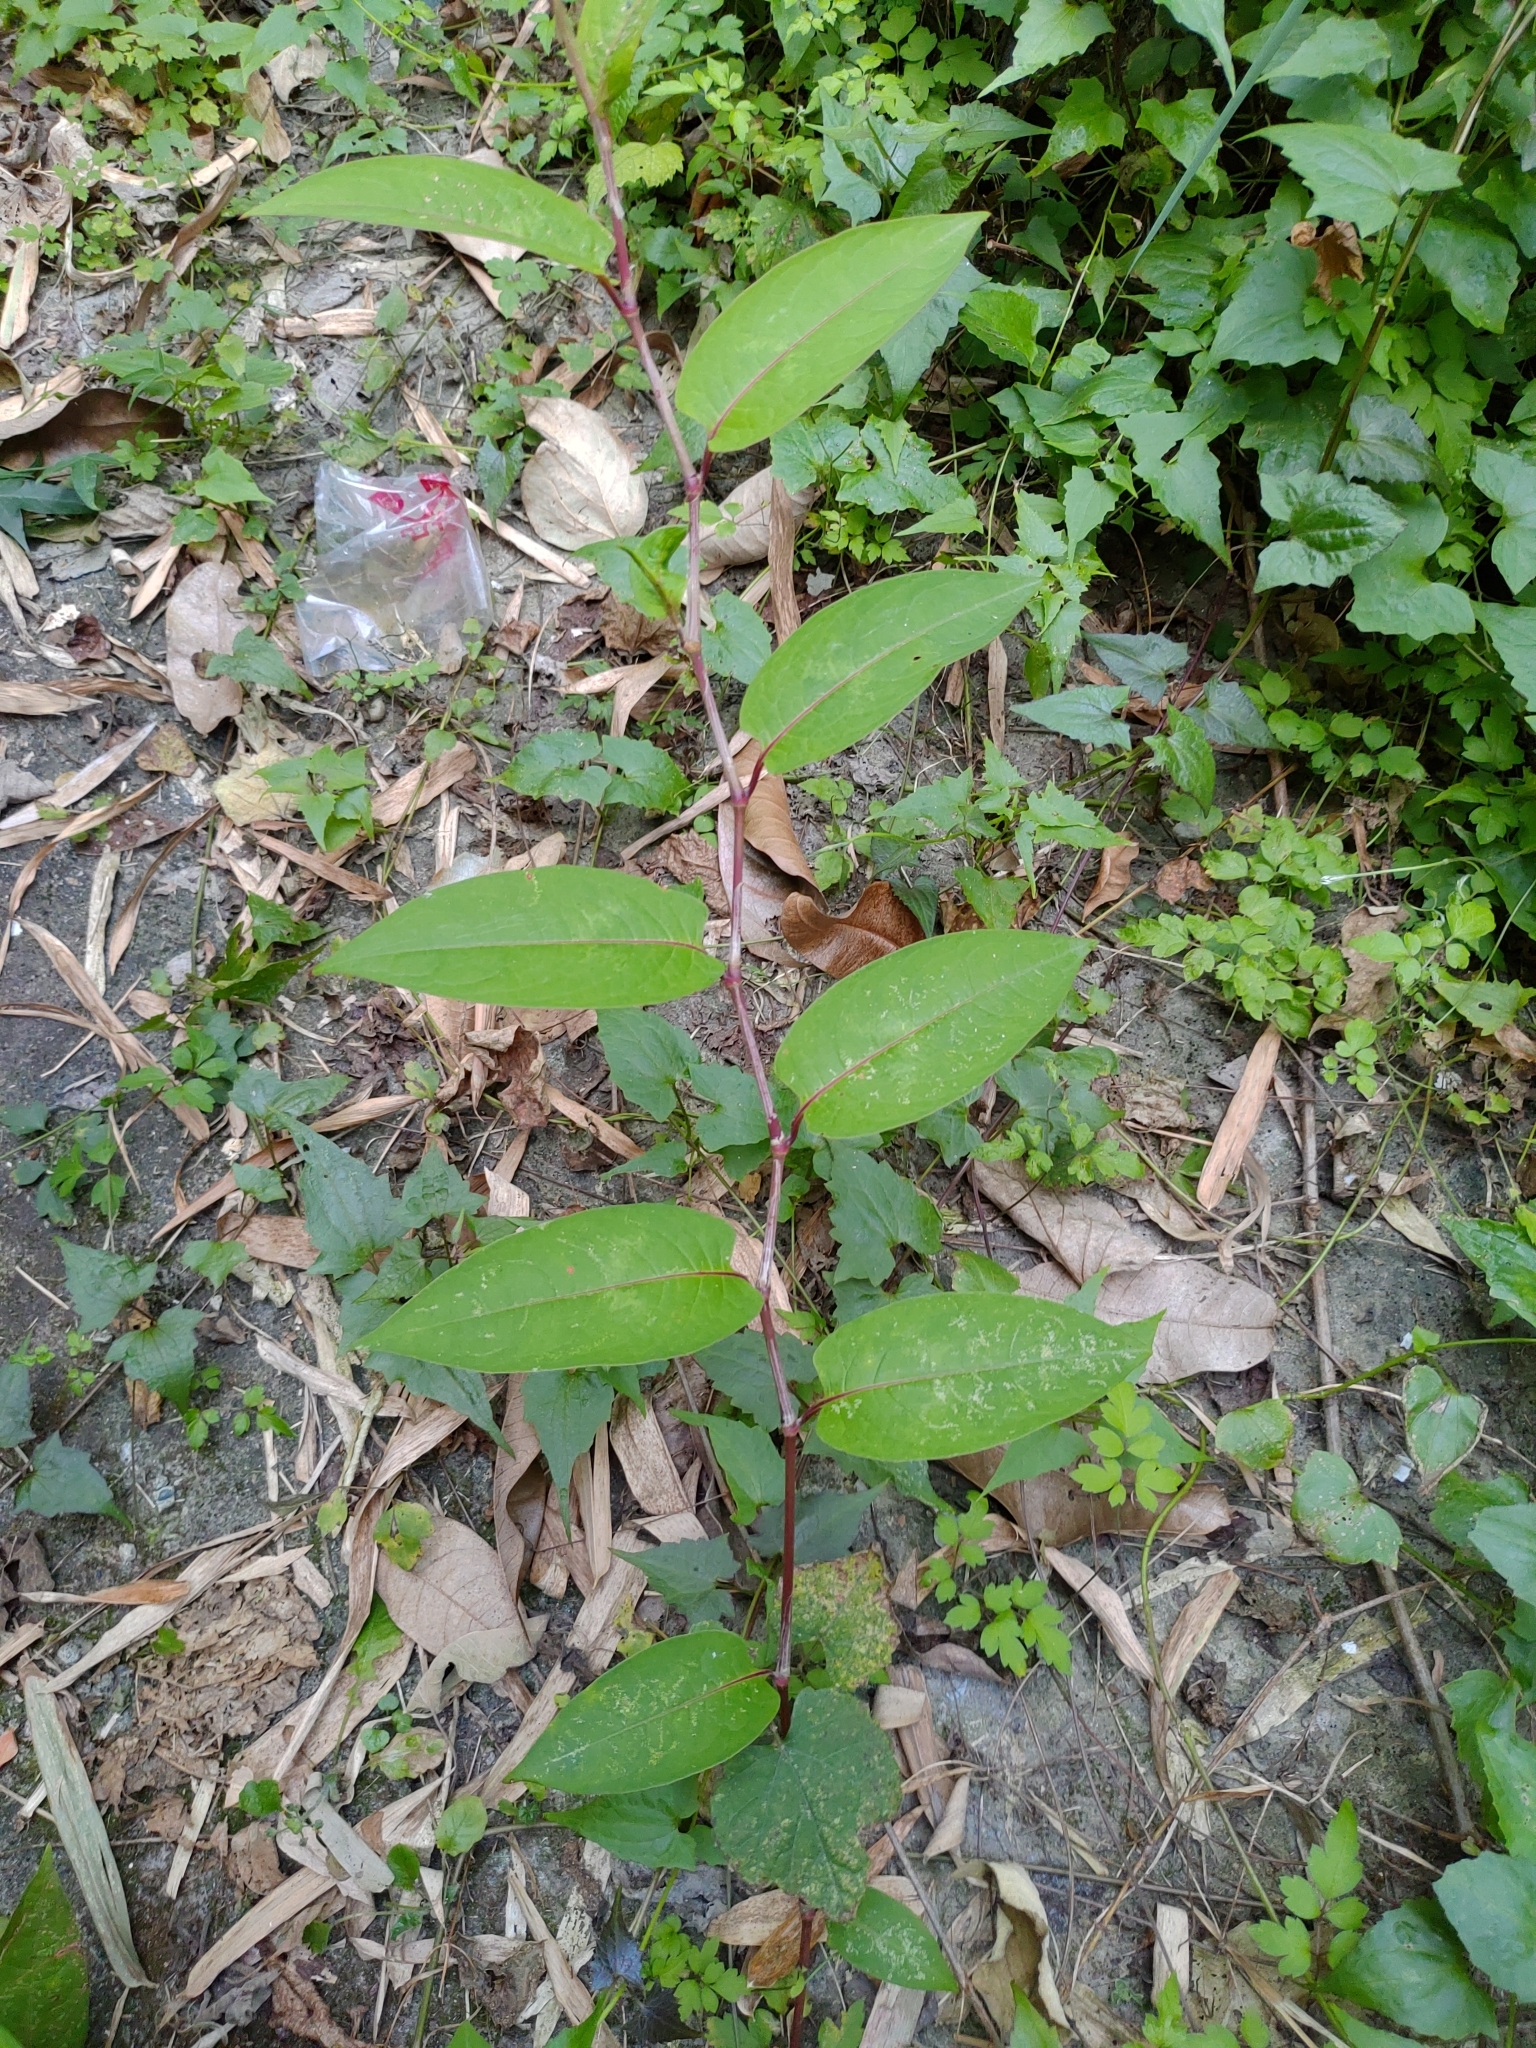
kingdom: Plantae
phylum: Tracheophyta
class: Magnoliopsida
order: Caryophyllales
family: Polygonaceae
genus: Persicaria
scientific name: Persicaria chinensis
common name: Chinese knotweed
